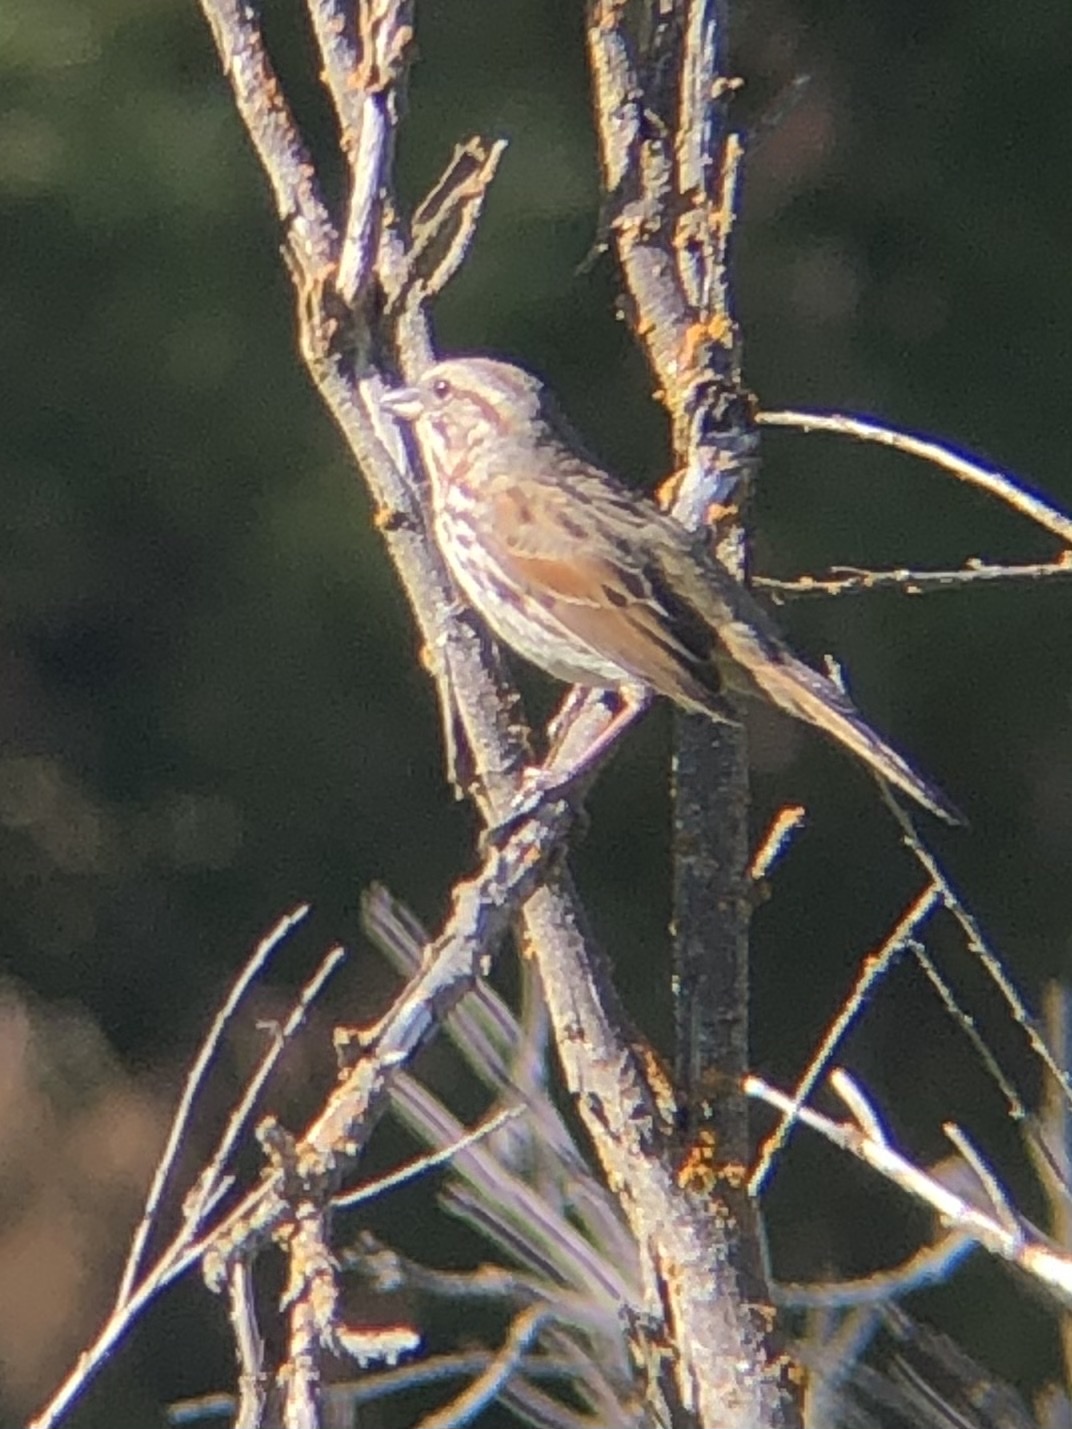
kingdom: Animalia
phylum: Chordata
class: Aves
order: Passeriformes
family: Passerellidae
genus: Melospiza
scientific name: Melospiza melodia
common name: Song sparrow
